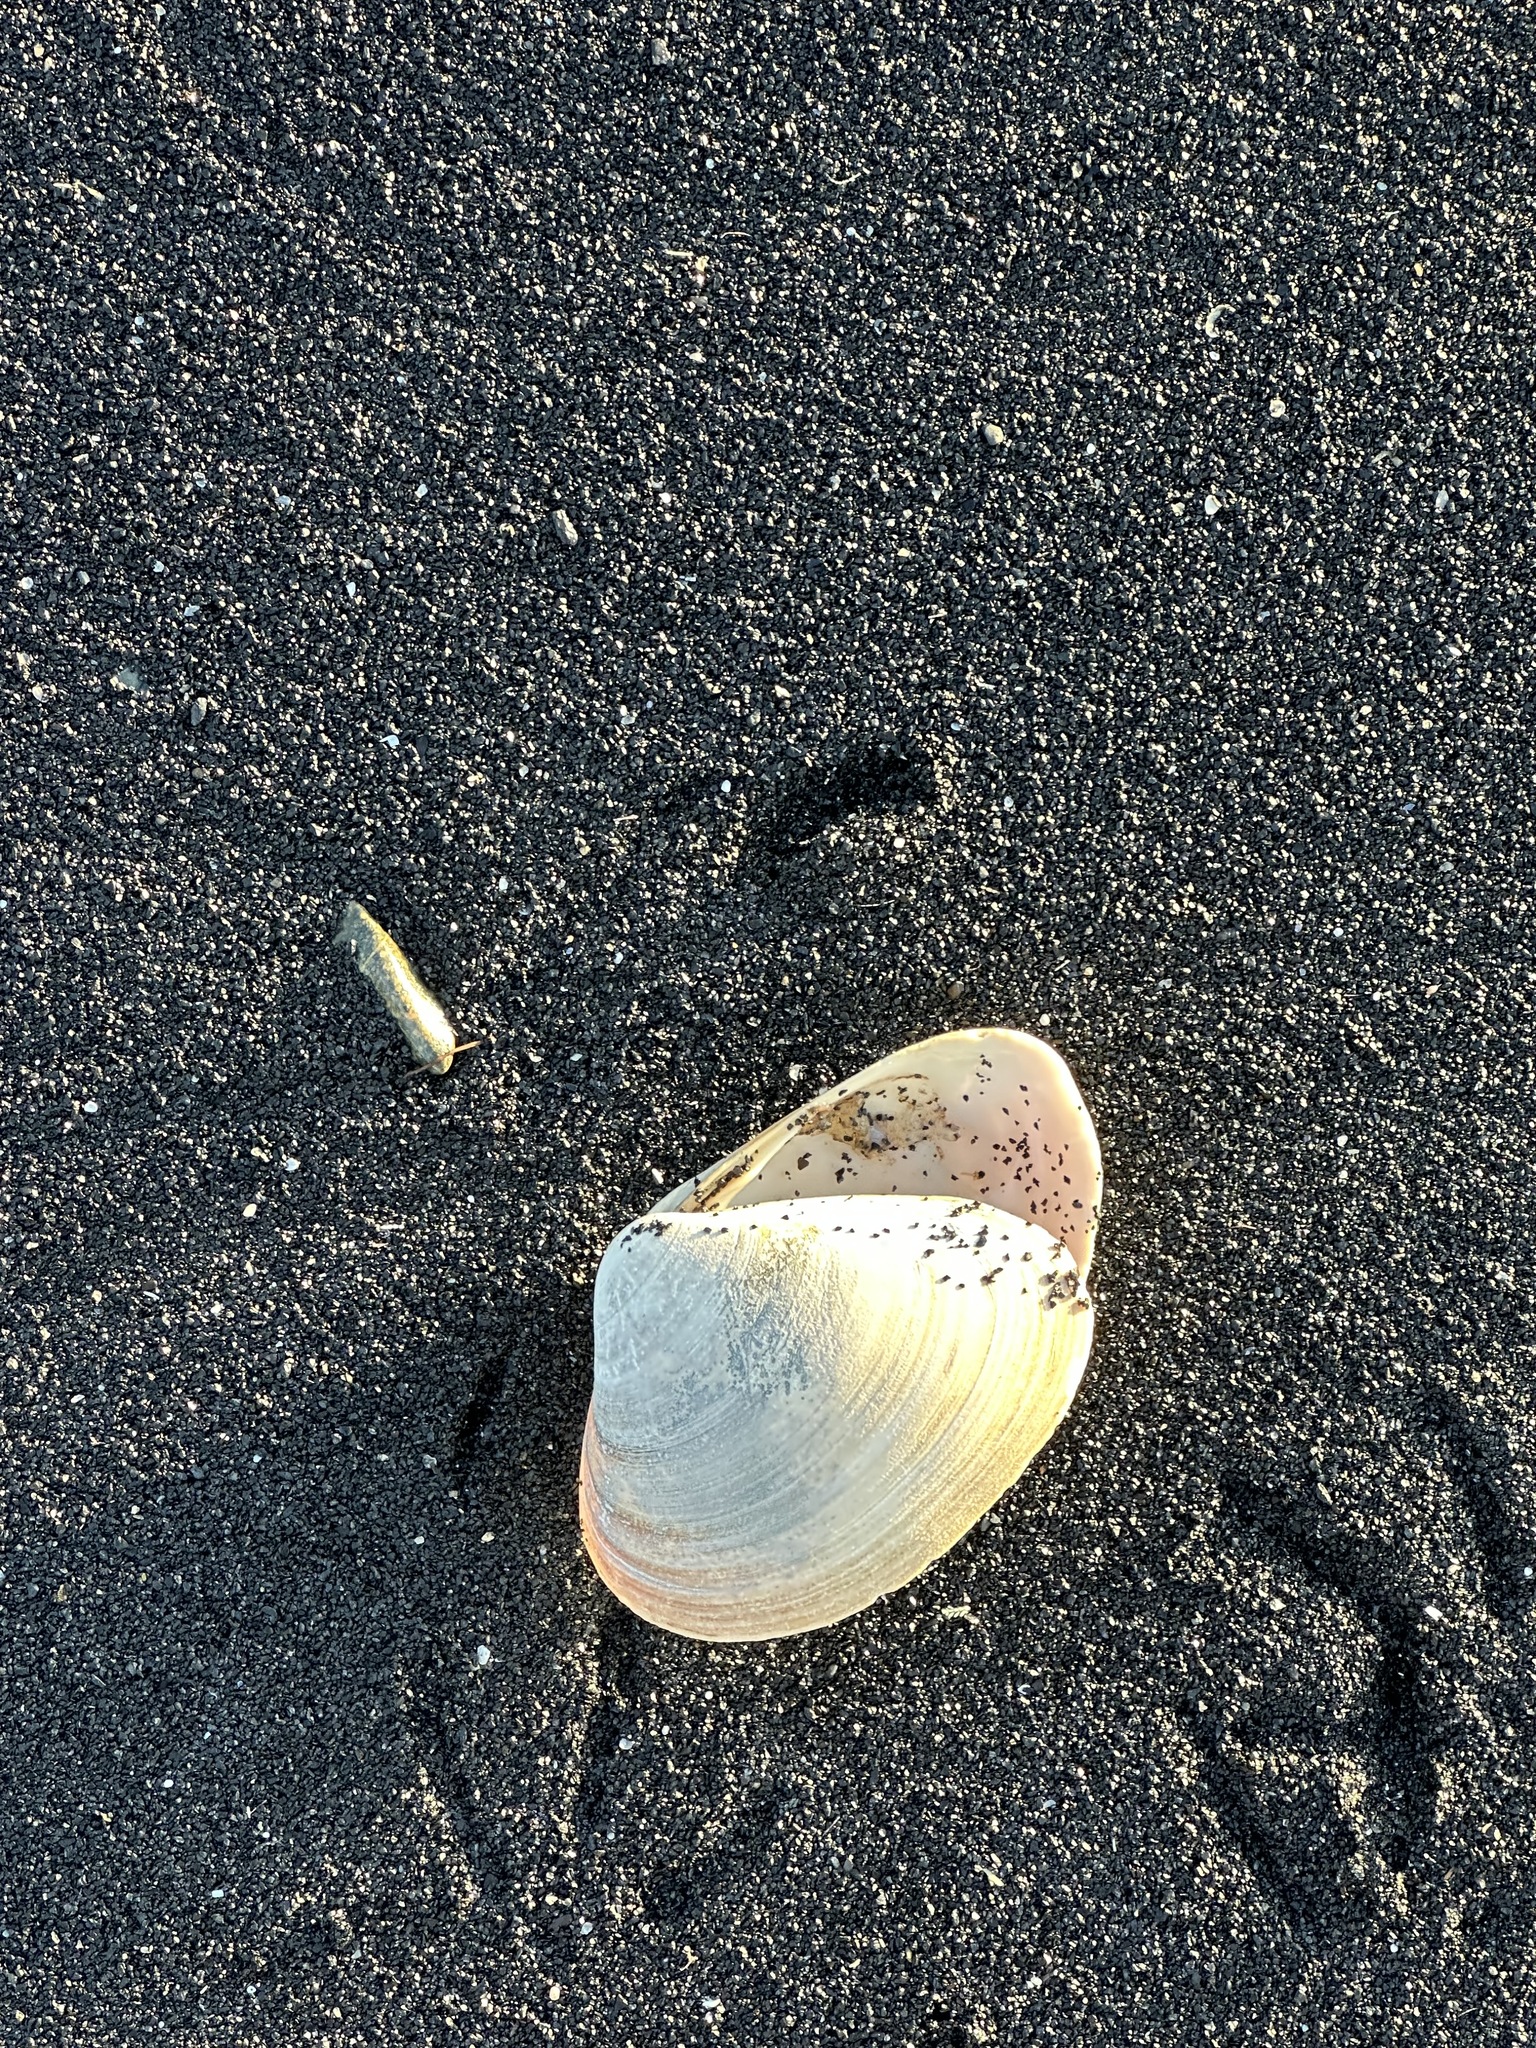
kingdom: Animalia
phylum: Mollusca
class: Bivalvia
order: Venerida
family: Mactridae
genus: Spisula
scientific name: Spisula solidissima
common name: Atlantic surf clam
